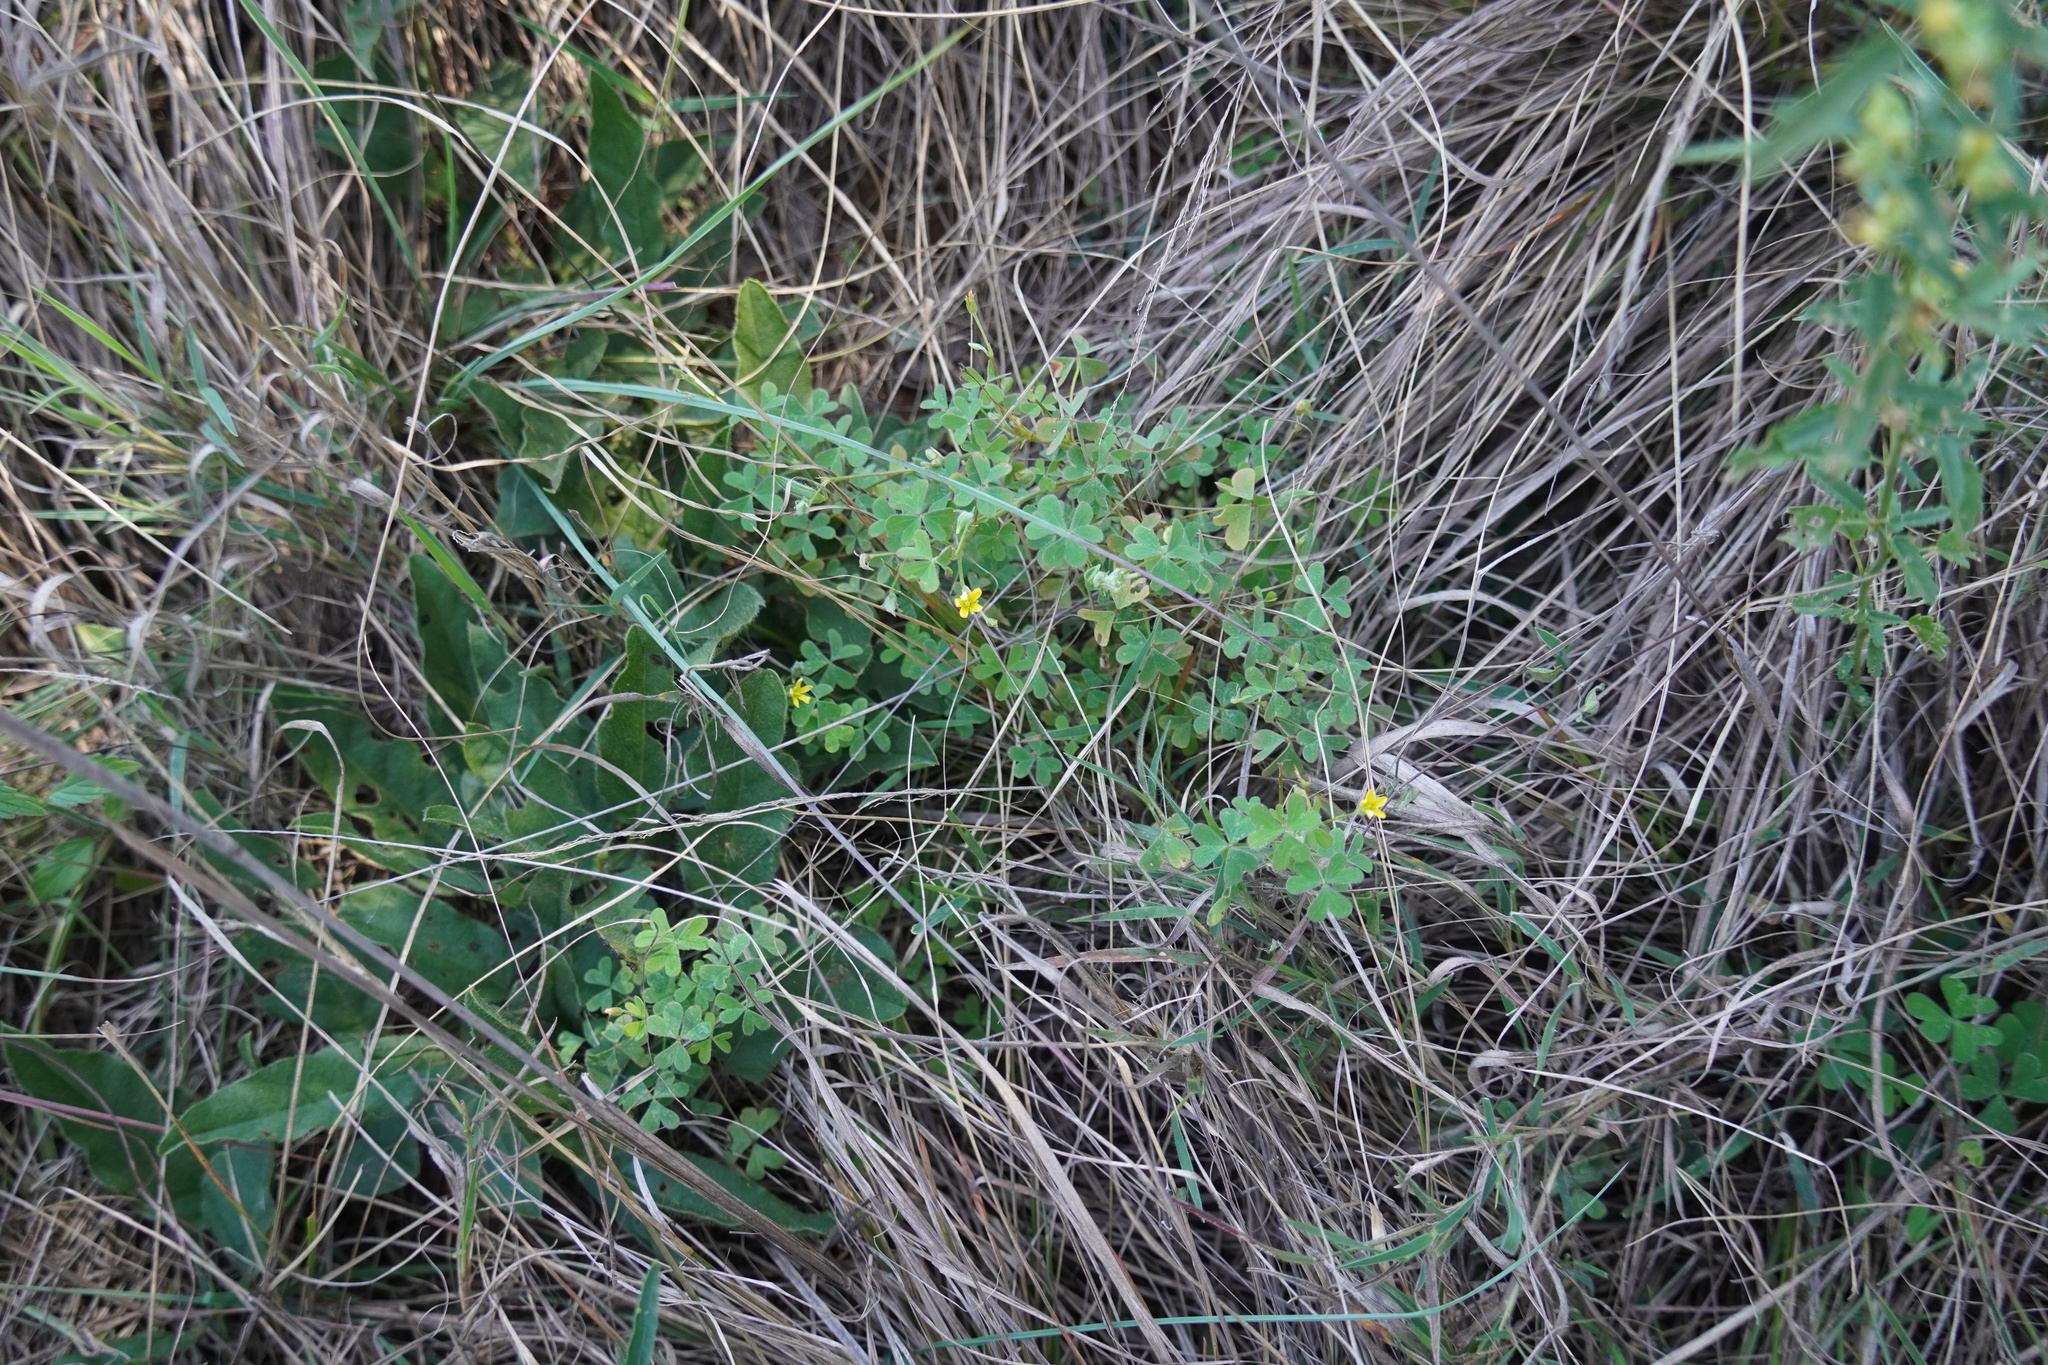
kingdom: Plantae
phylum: Tracheophyta
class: Magnoliopsida
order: Oxalidales
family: Oxalidaceae
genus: Oxalis
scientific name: Oxalis corniculata
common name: Procumbent yellow-sorrel
